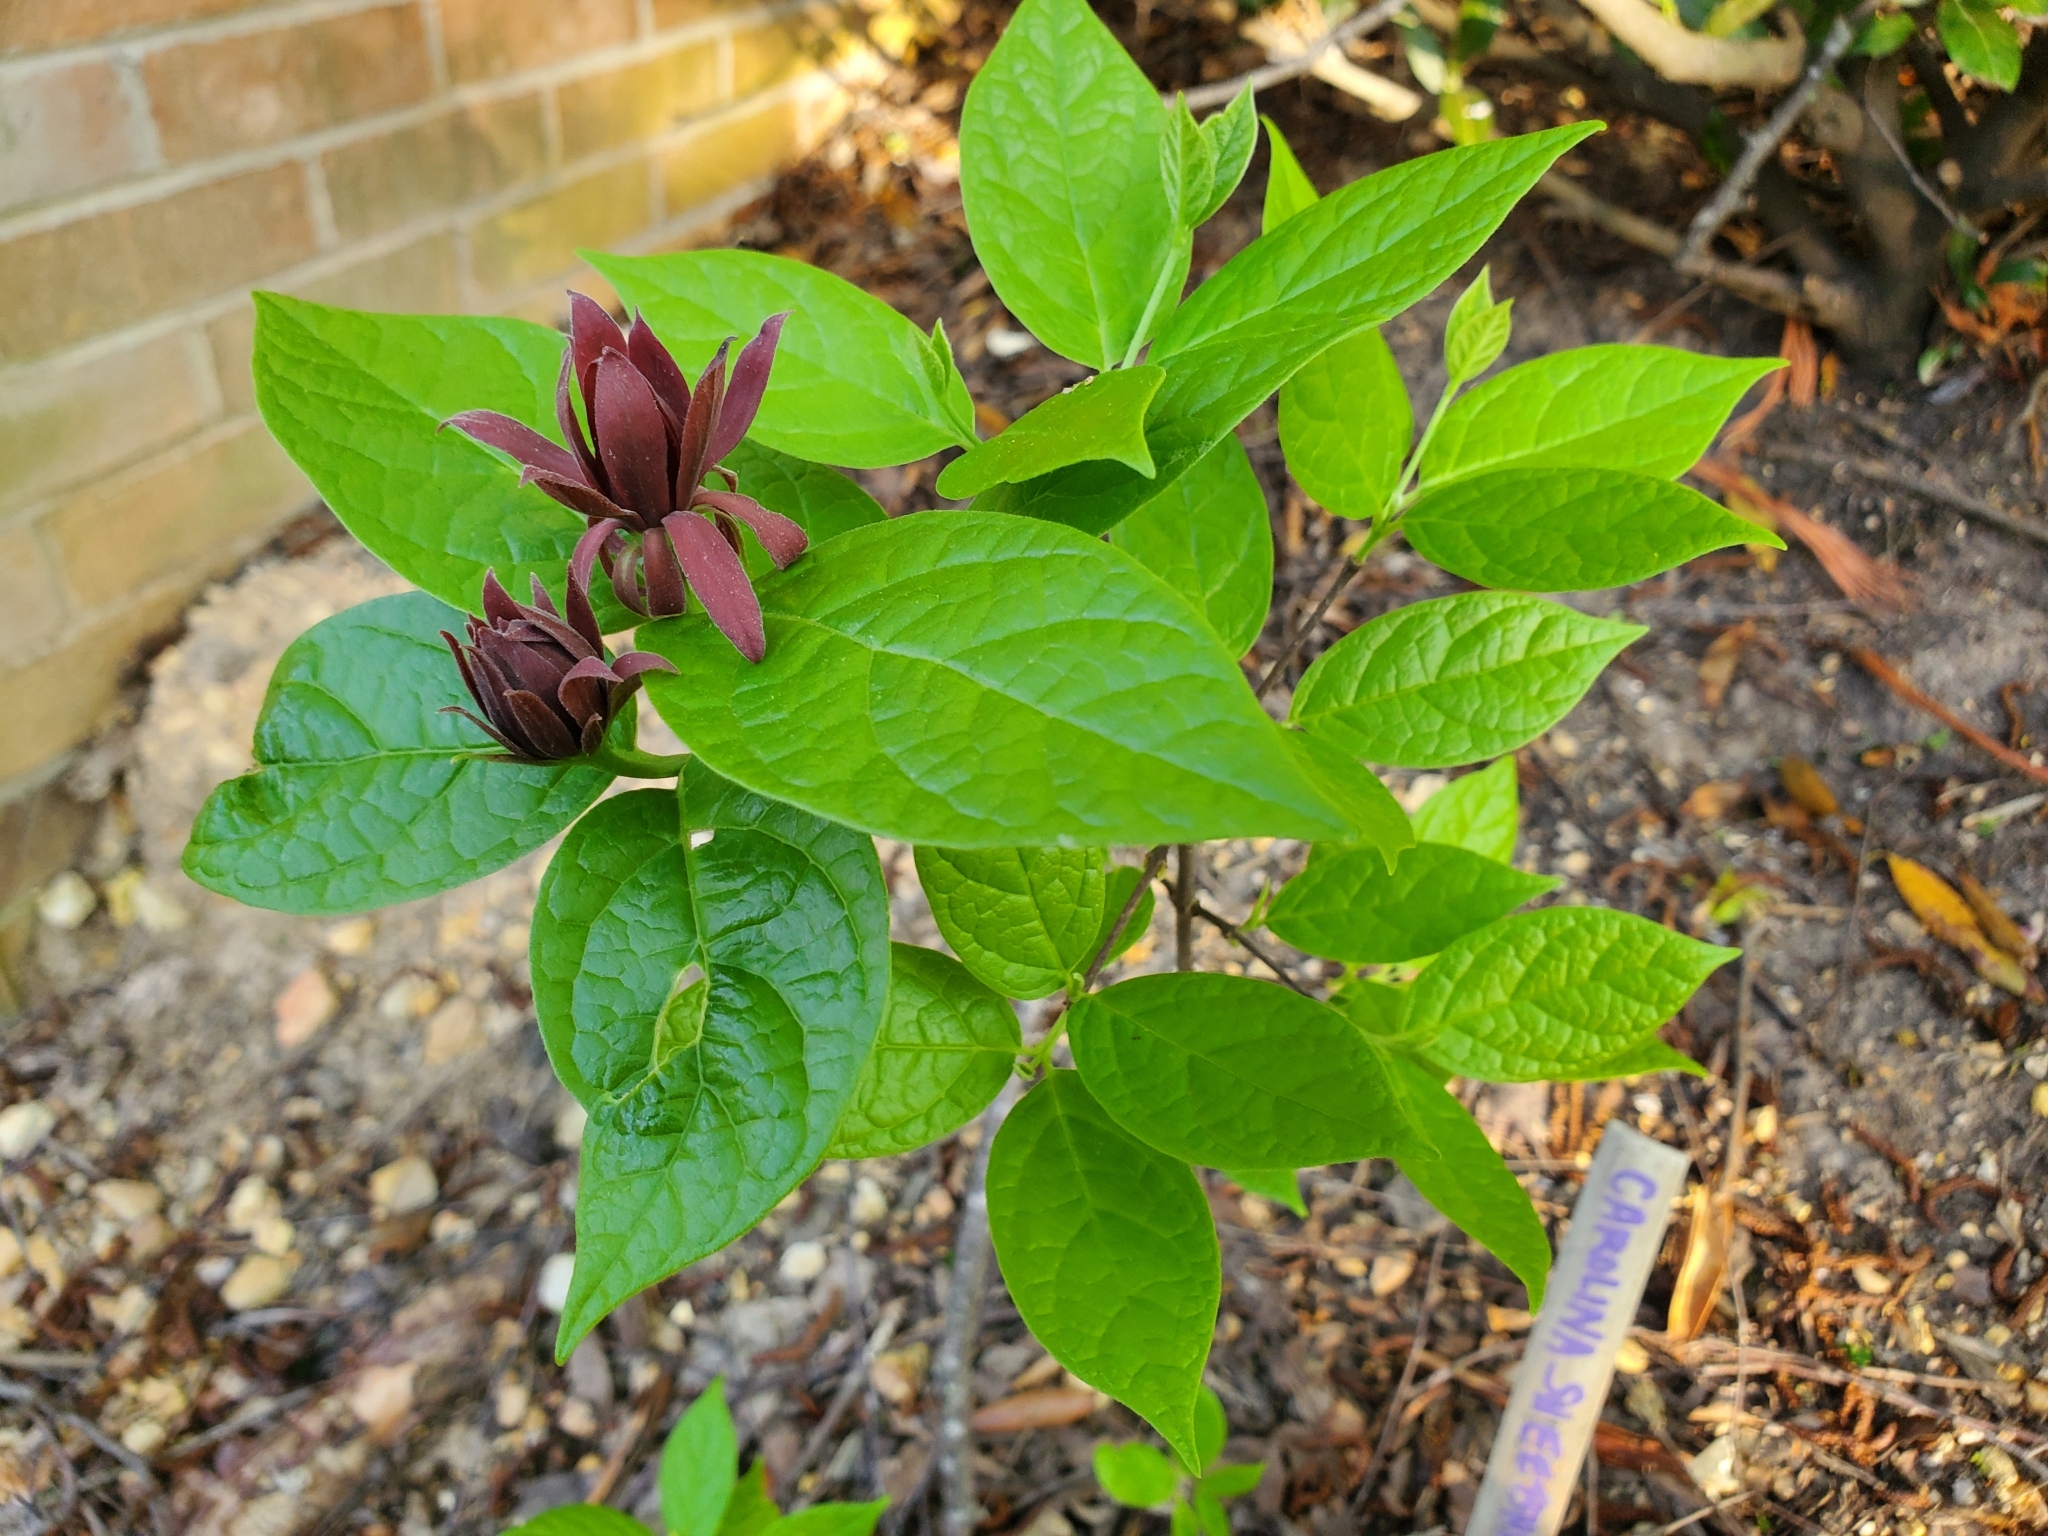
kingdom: Plantae
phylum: Tracheophyta
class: Magnoliopsida
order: Laurales
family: Calycanthaceae
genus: Calycanthus
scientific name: Calycanthus floridus
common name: Carolina-allspice
